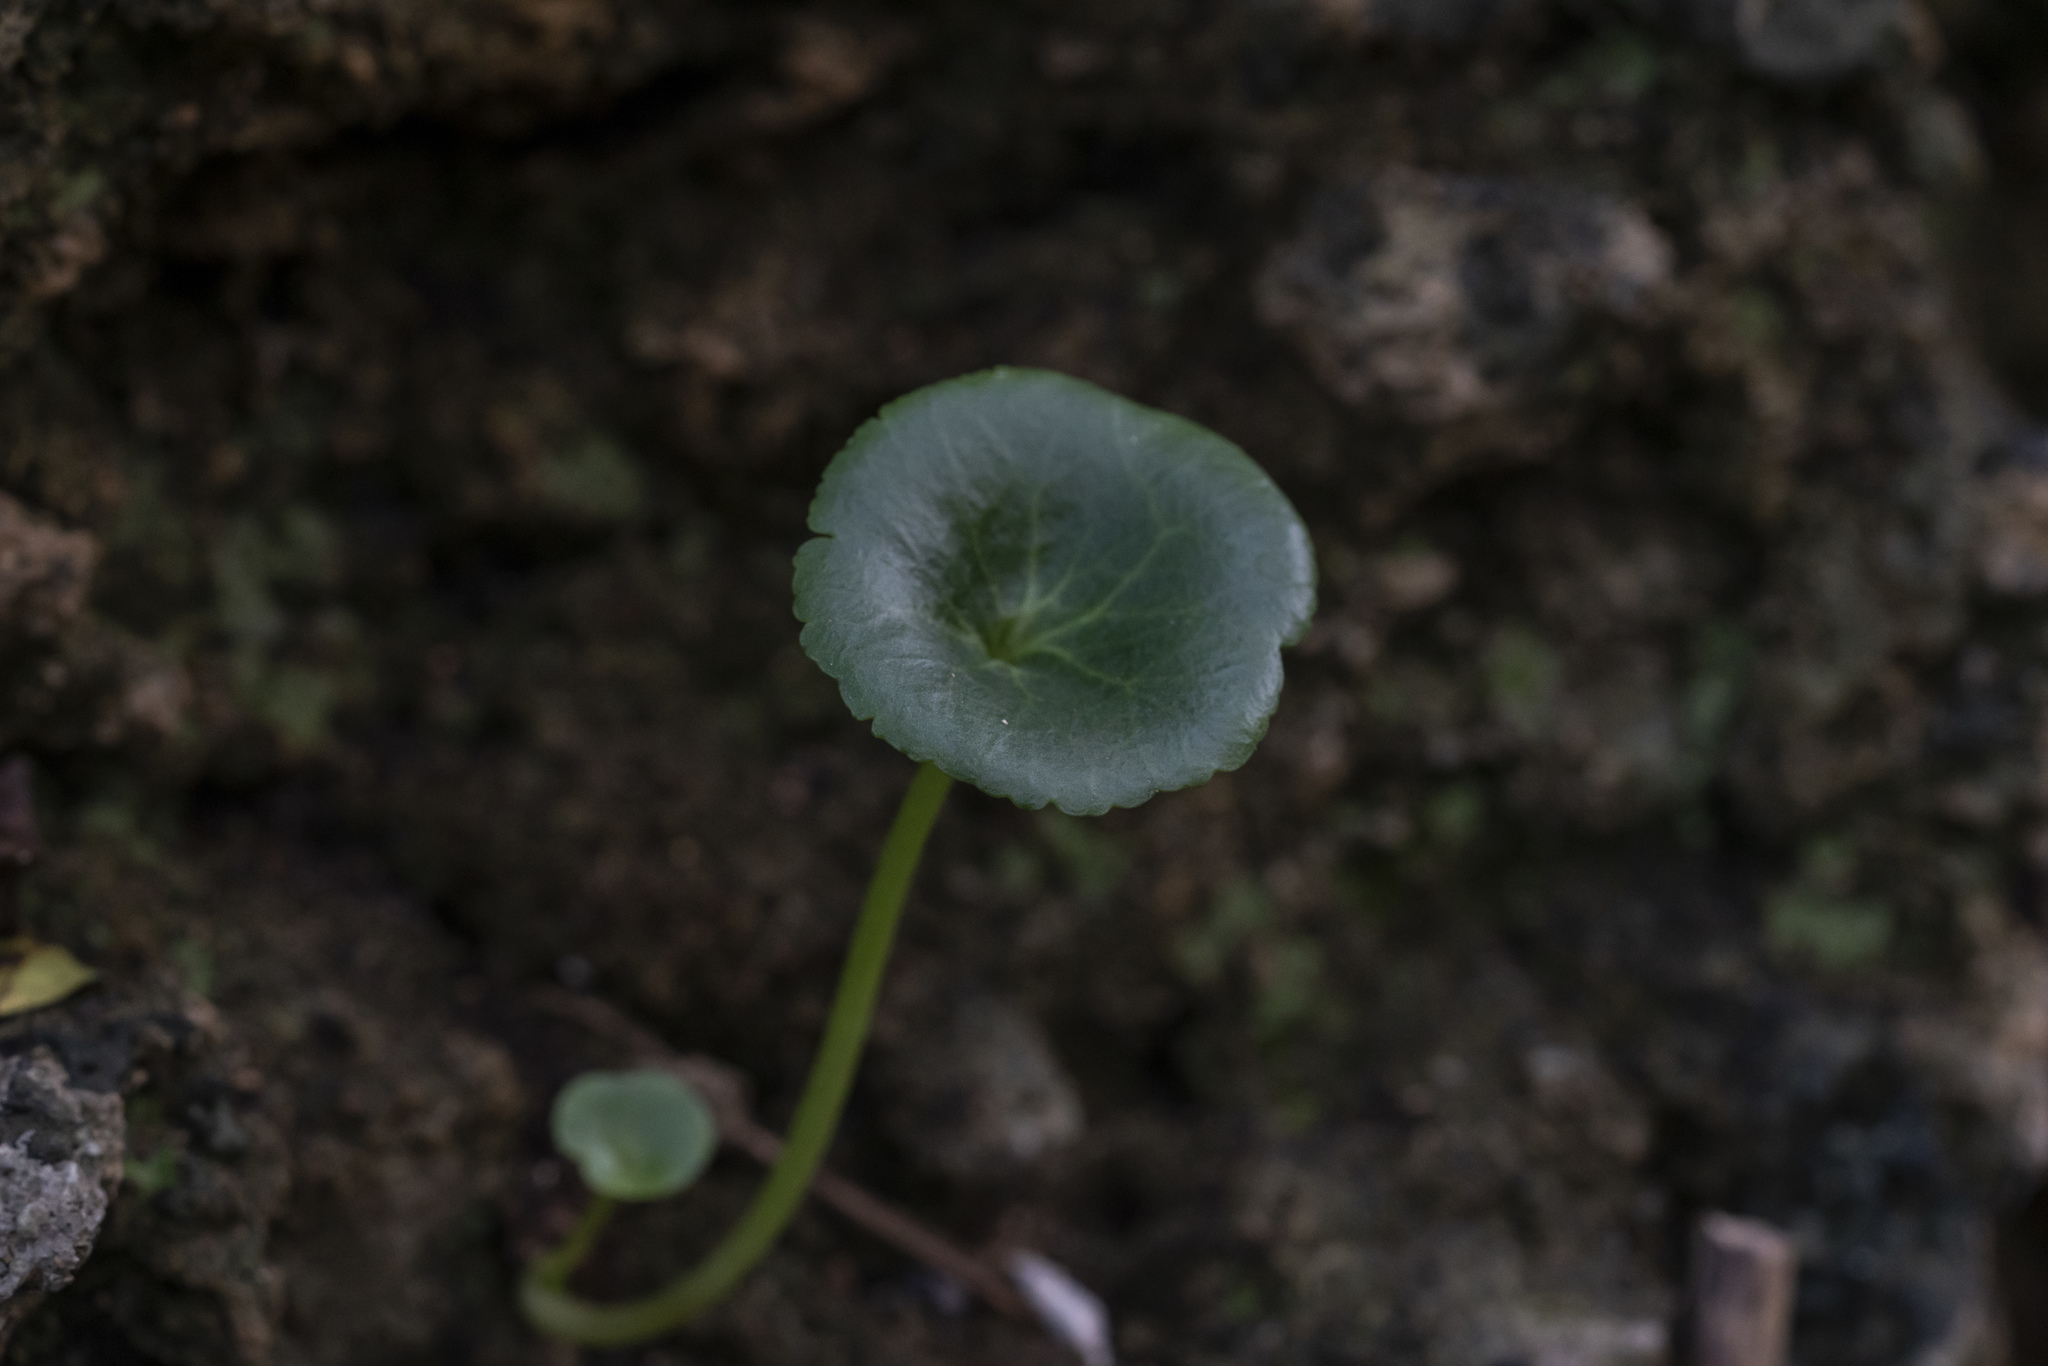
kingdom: Plantae
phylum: Tracheophyta
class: Magnoliopsida
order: Saxifragales
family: Crassulaceae
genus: Umbilicus
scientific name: Umbilicus
